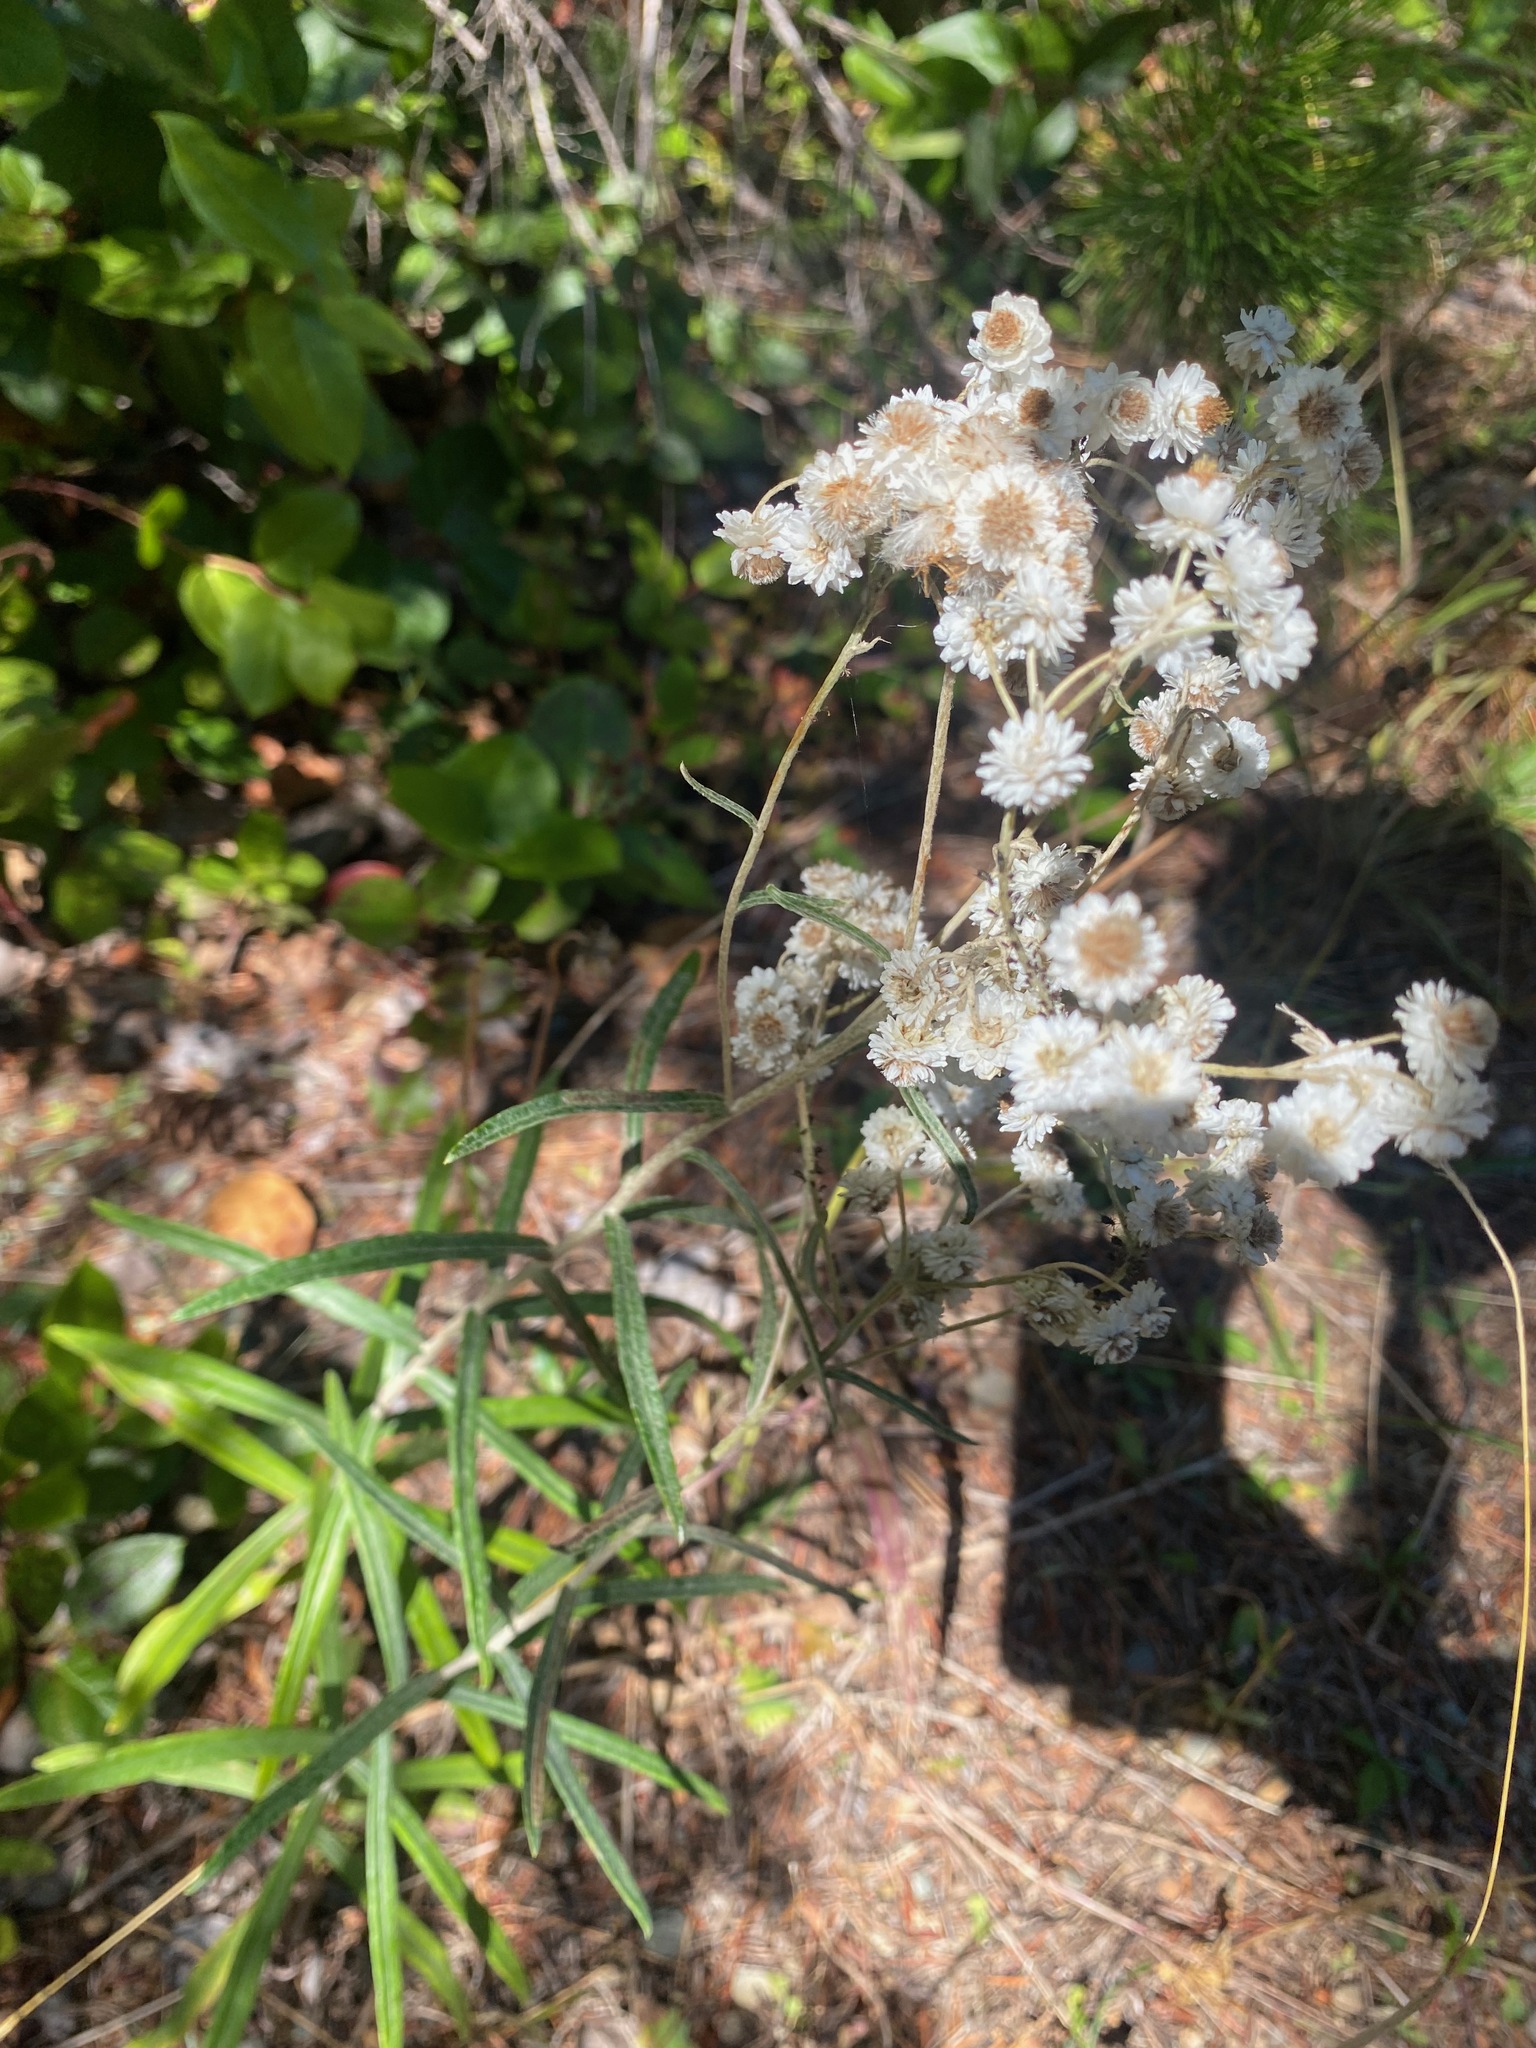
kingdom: Plantae
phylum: Tracheophyta
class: Magnoliopsida
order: Asterales
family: Asteraceae
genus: Anaphalis
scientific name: Anaphalis margaritacea
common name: Pearly everlasting
